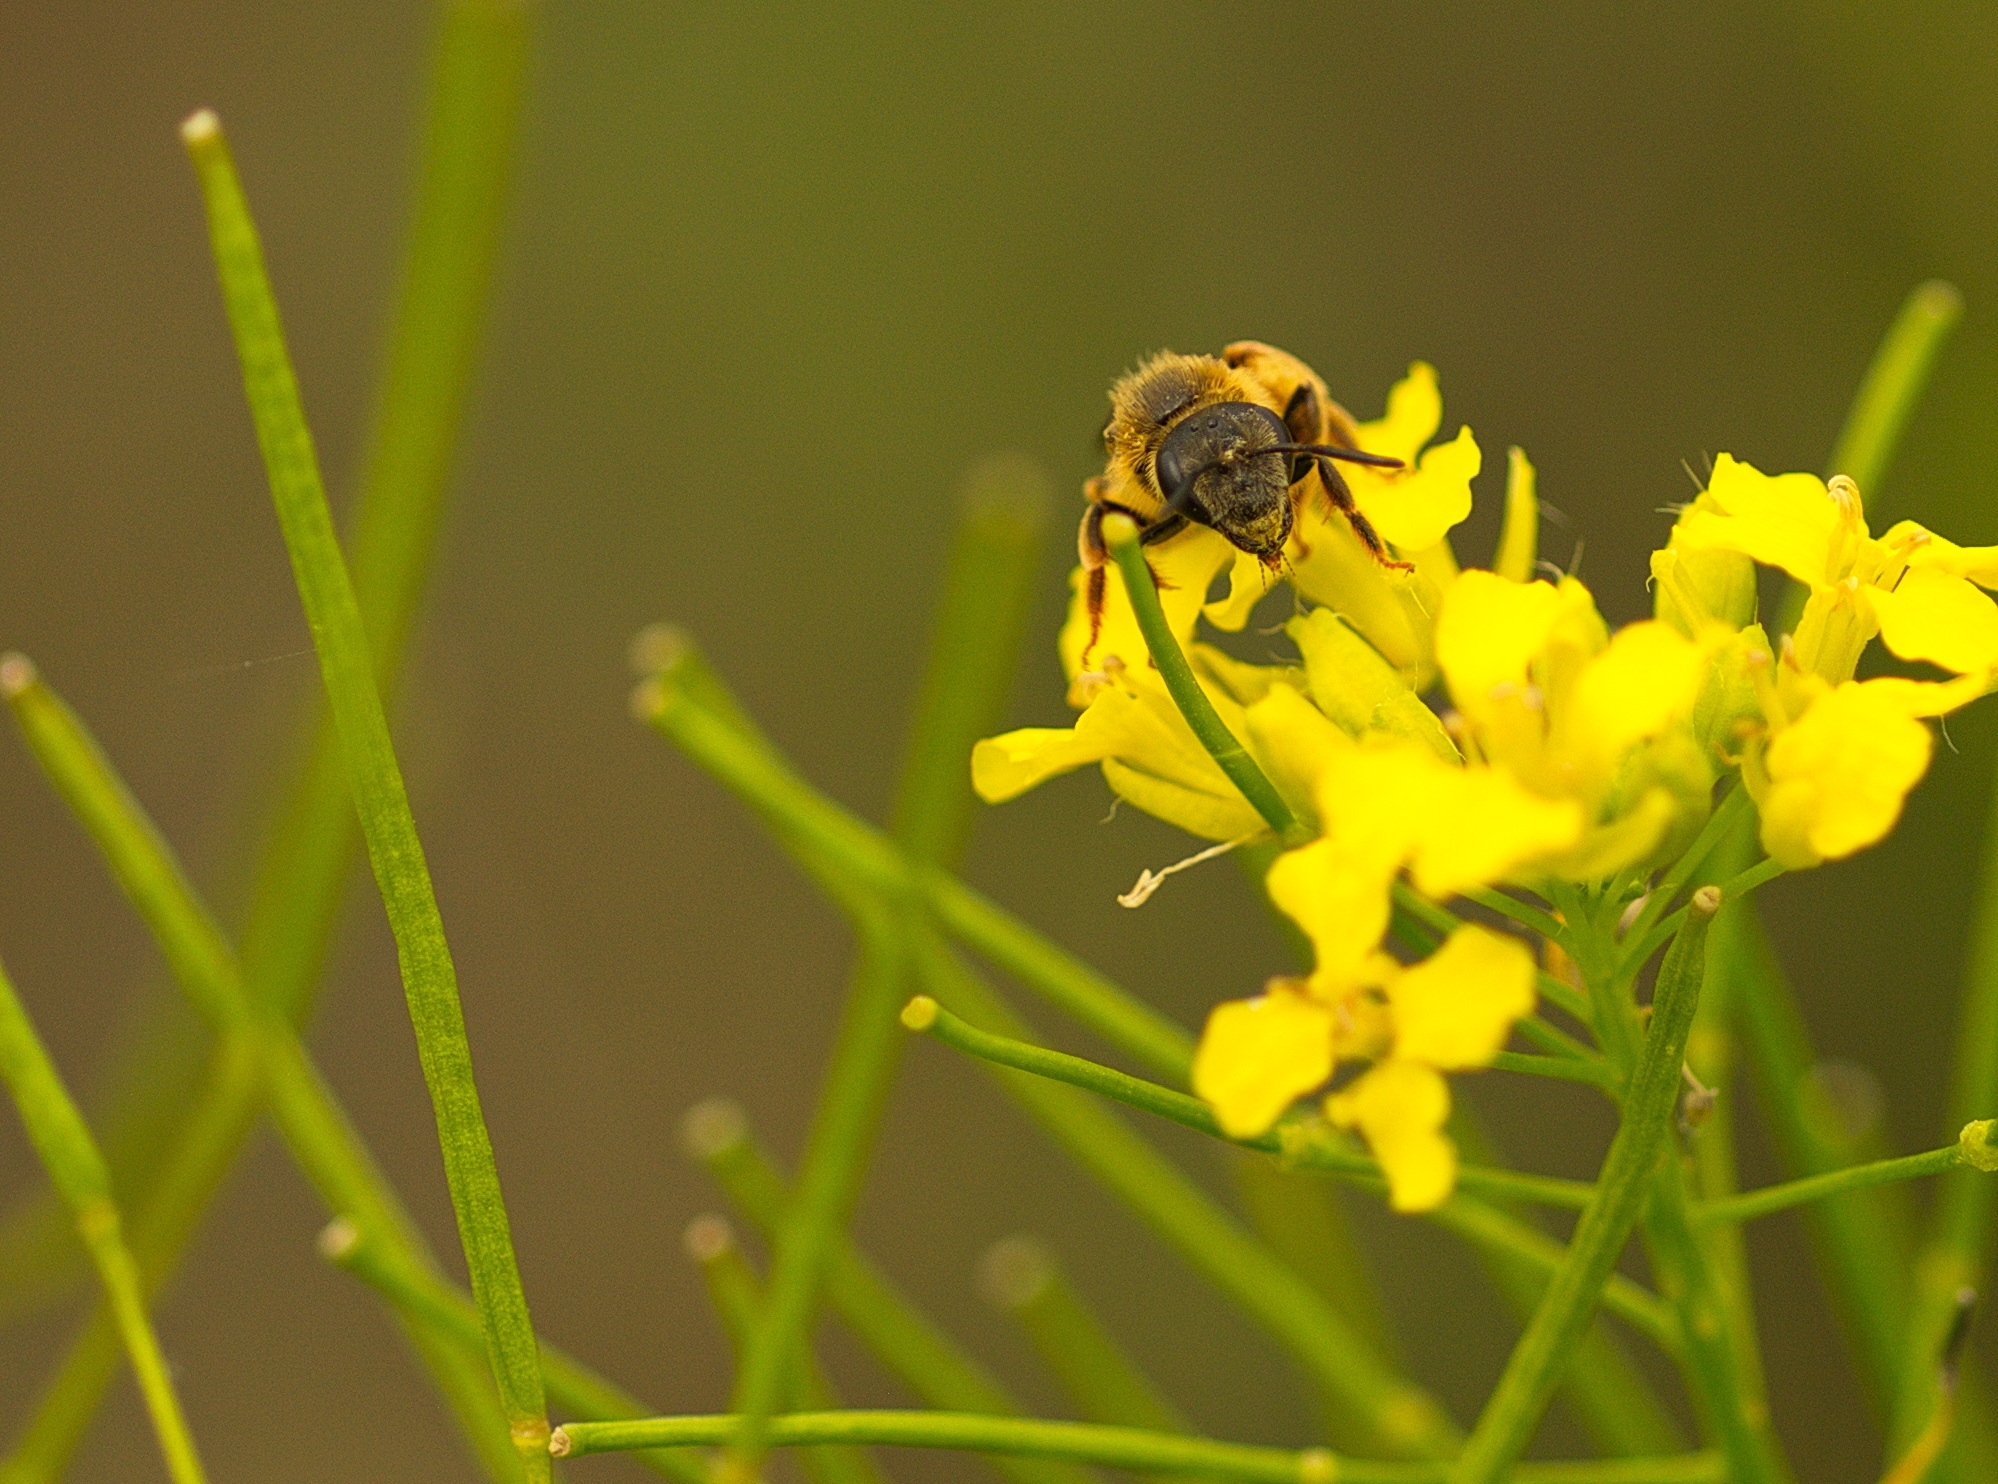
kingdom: Animalia
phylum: Arthropoda
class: Insecta
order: Hymenoptera
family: Halictidae
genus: Halictus
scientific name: Halictus rubicundus
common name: Orange-legged furrow bee
